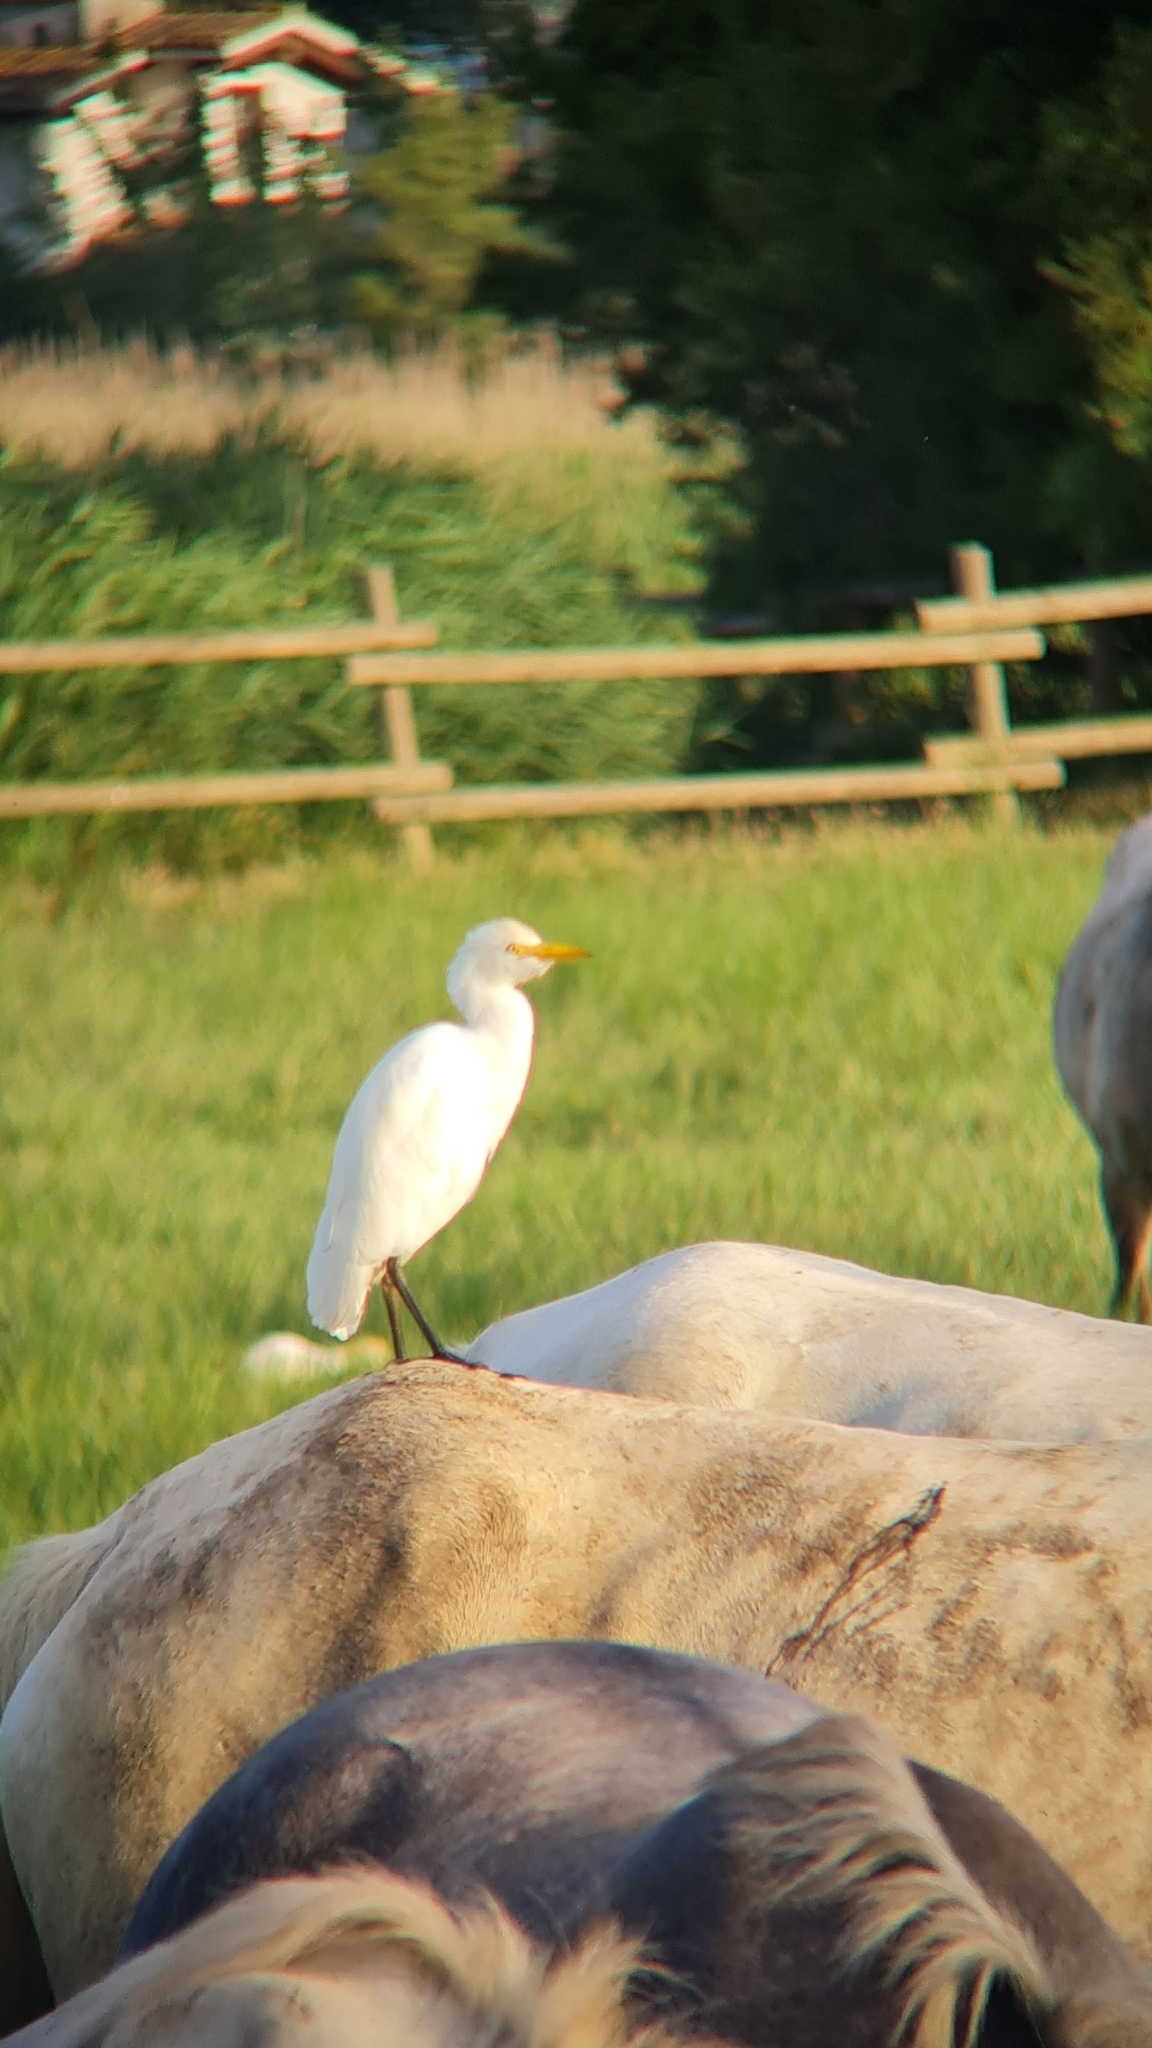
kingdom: Animalia
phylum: Chordata
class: Aves
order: Pelecaniformes
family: Ardeidae
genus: Bubulcus
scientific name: Bubulcus ibis
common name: Cattle egret
